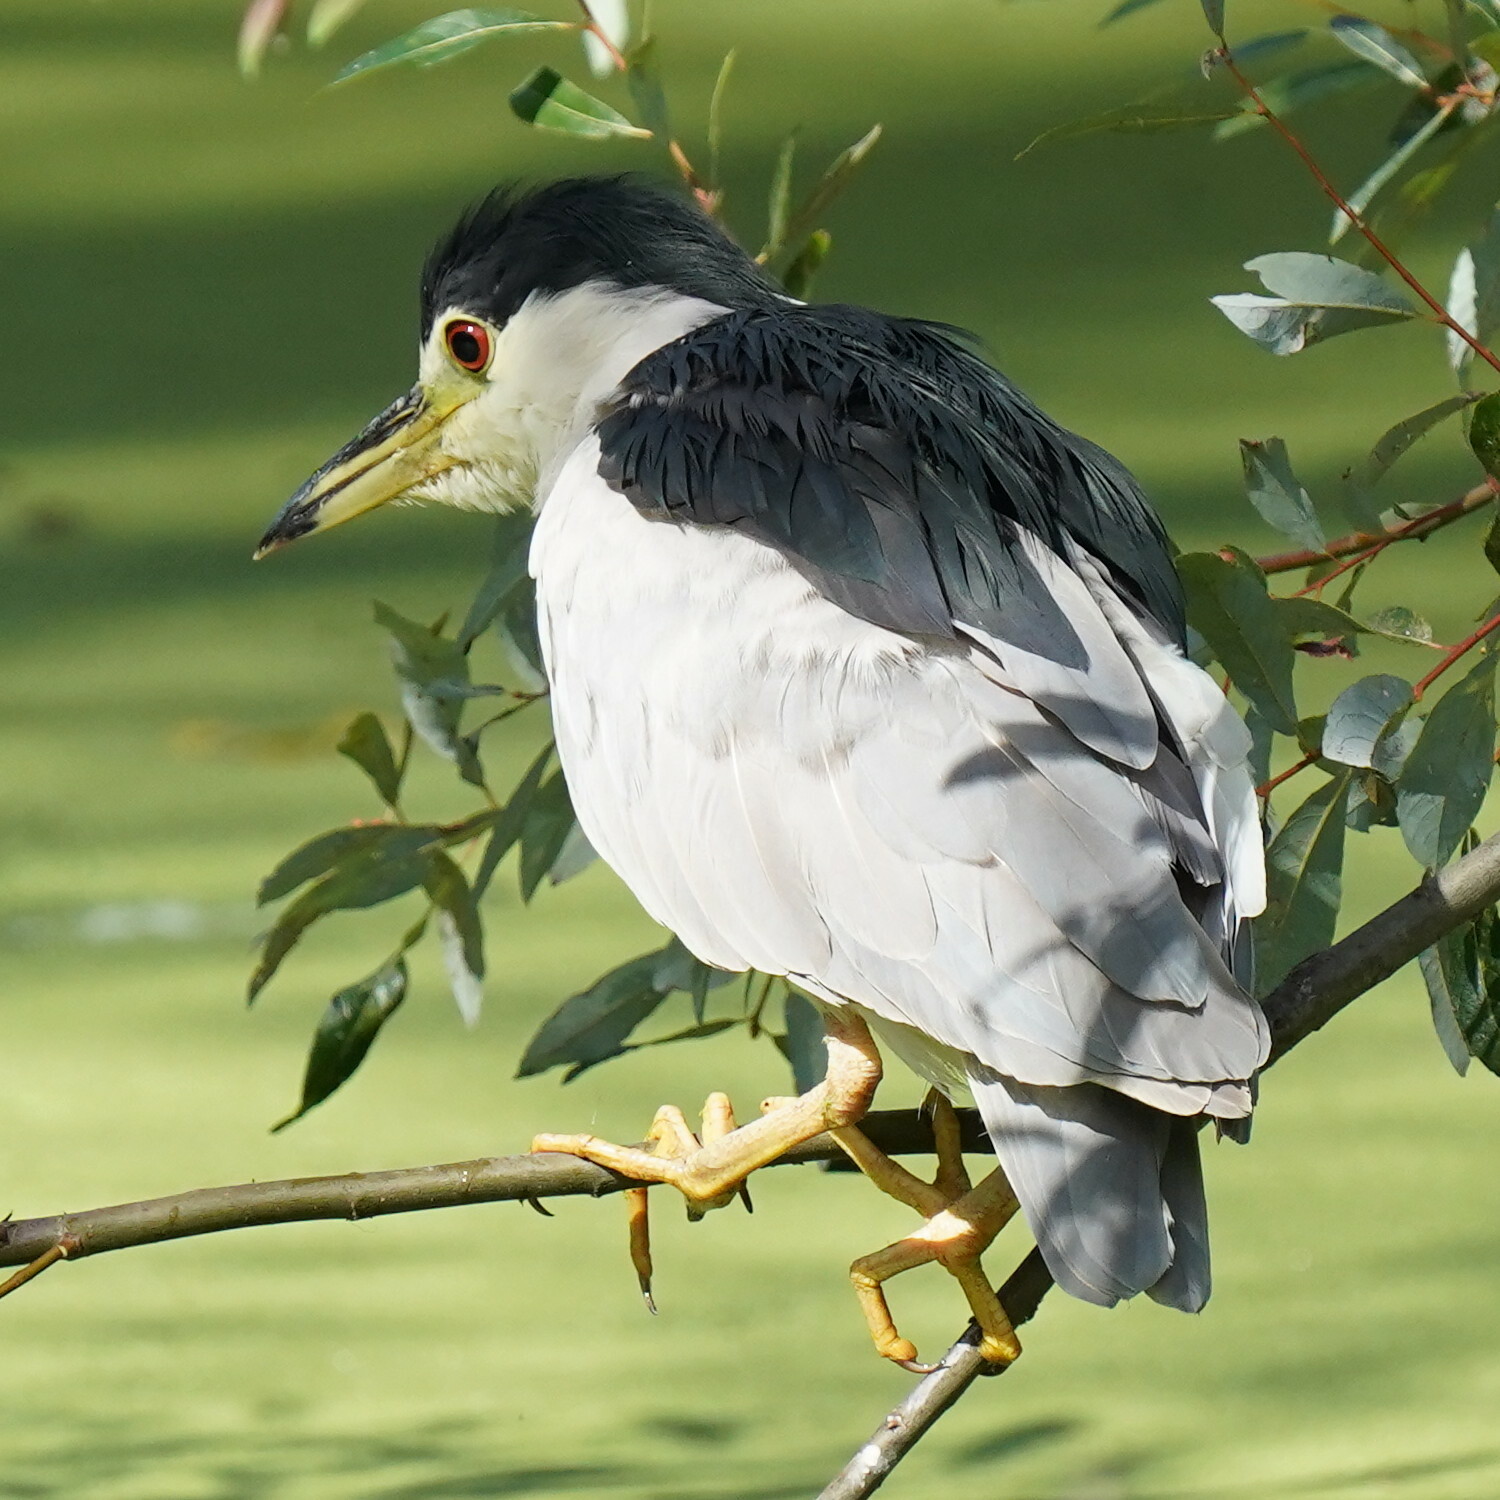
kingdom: Animalia
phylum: Chordata
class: Aves
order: Pelecaniformes
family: Ardeidae
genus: Nycticorax
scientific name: Nycticorax nycticorax
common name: Black-crowned night heron
